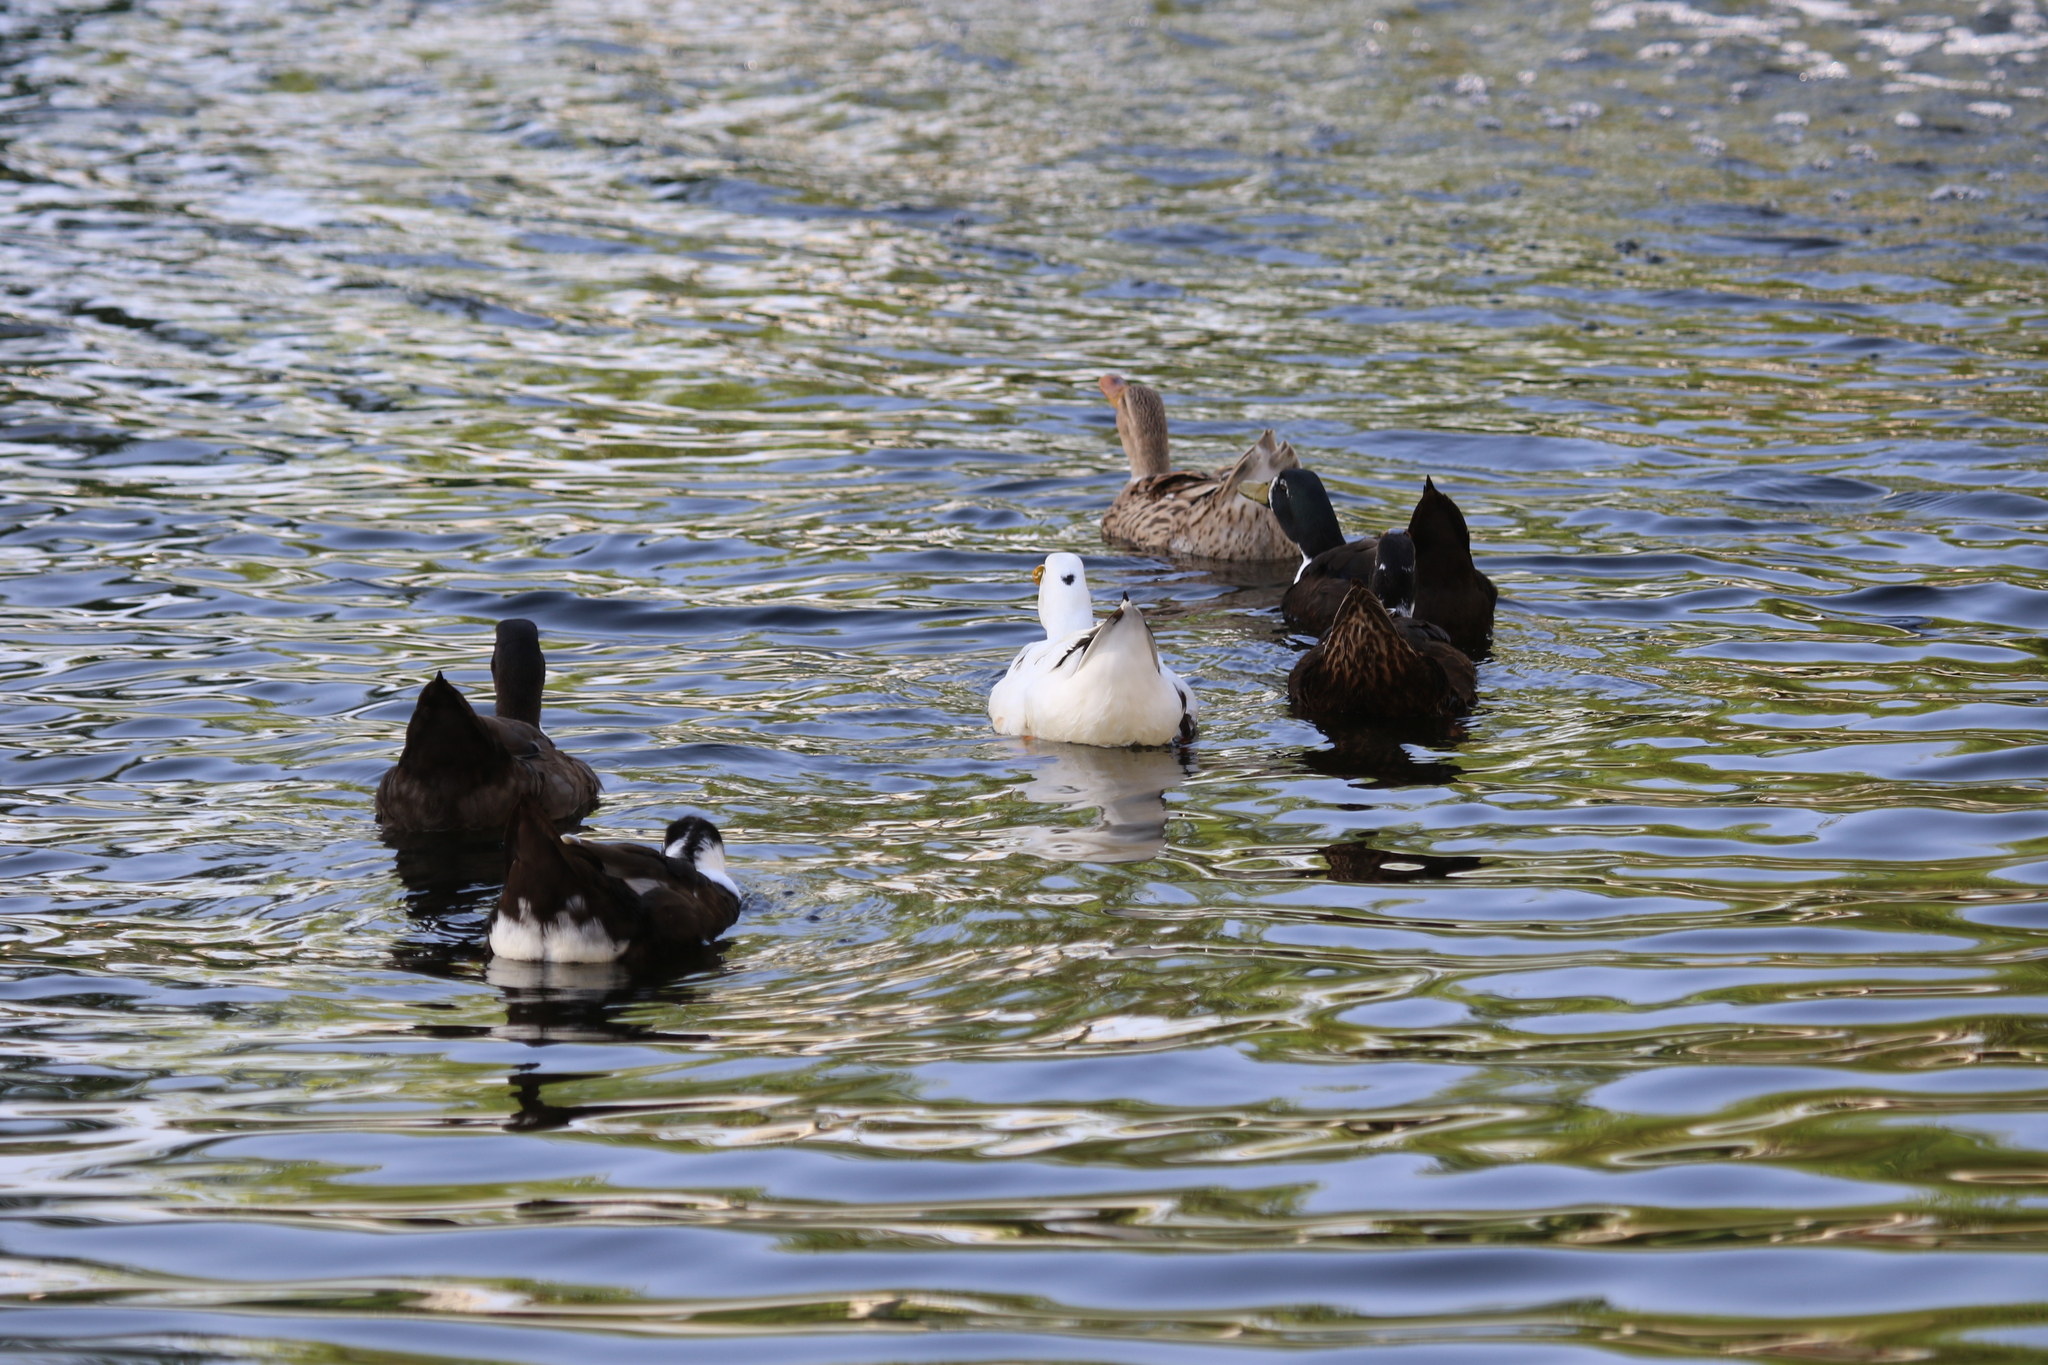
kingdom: Animalia
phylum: Chordata
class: Aves
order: Anseriformes
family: Anatidae
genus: Anas
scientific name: Anas platyrhynchos
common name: Mallard
